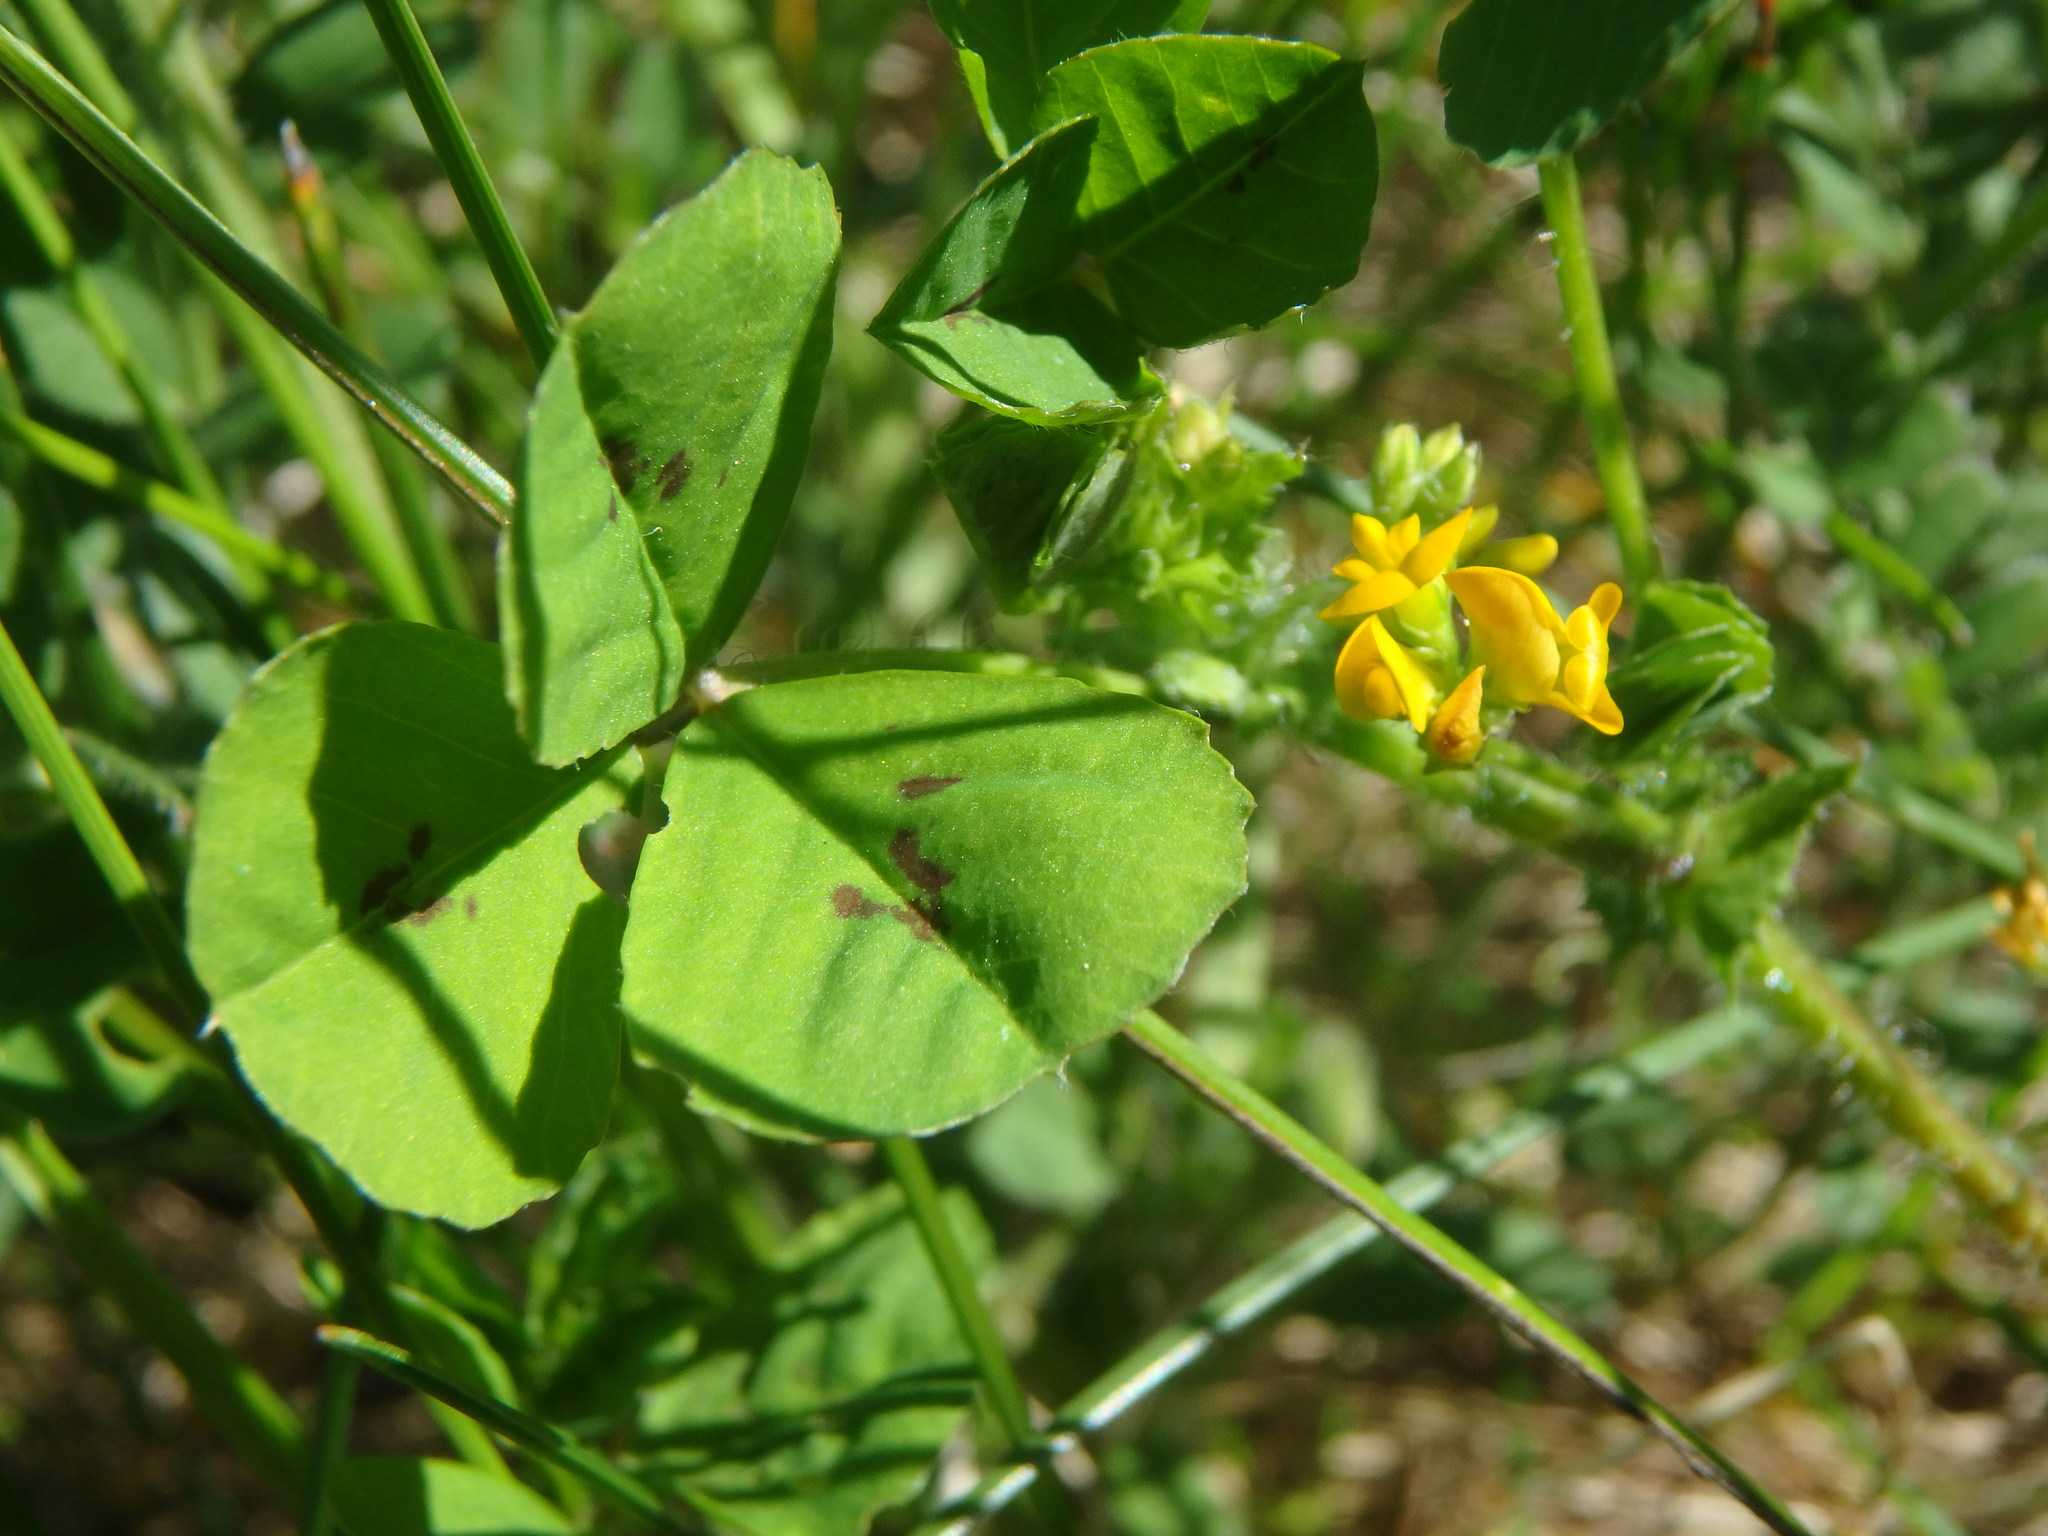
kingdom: Plantae
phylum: Tracheophyta
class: Magnoliopsida
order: Fabales
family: Fabaceae
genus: Medicago
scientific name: Medicago arabica
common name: Spotted medick
